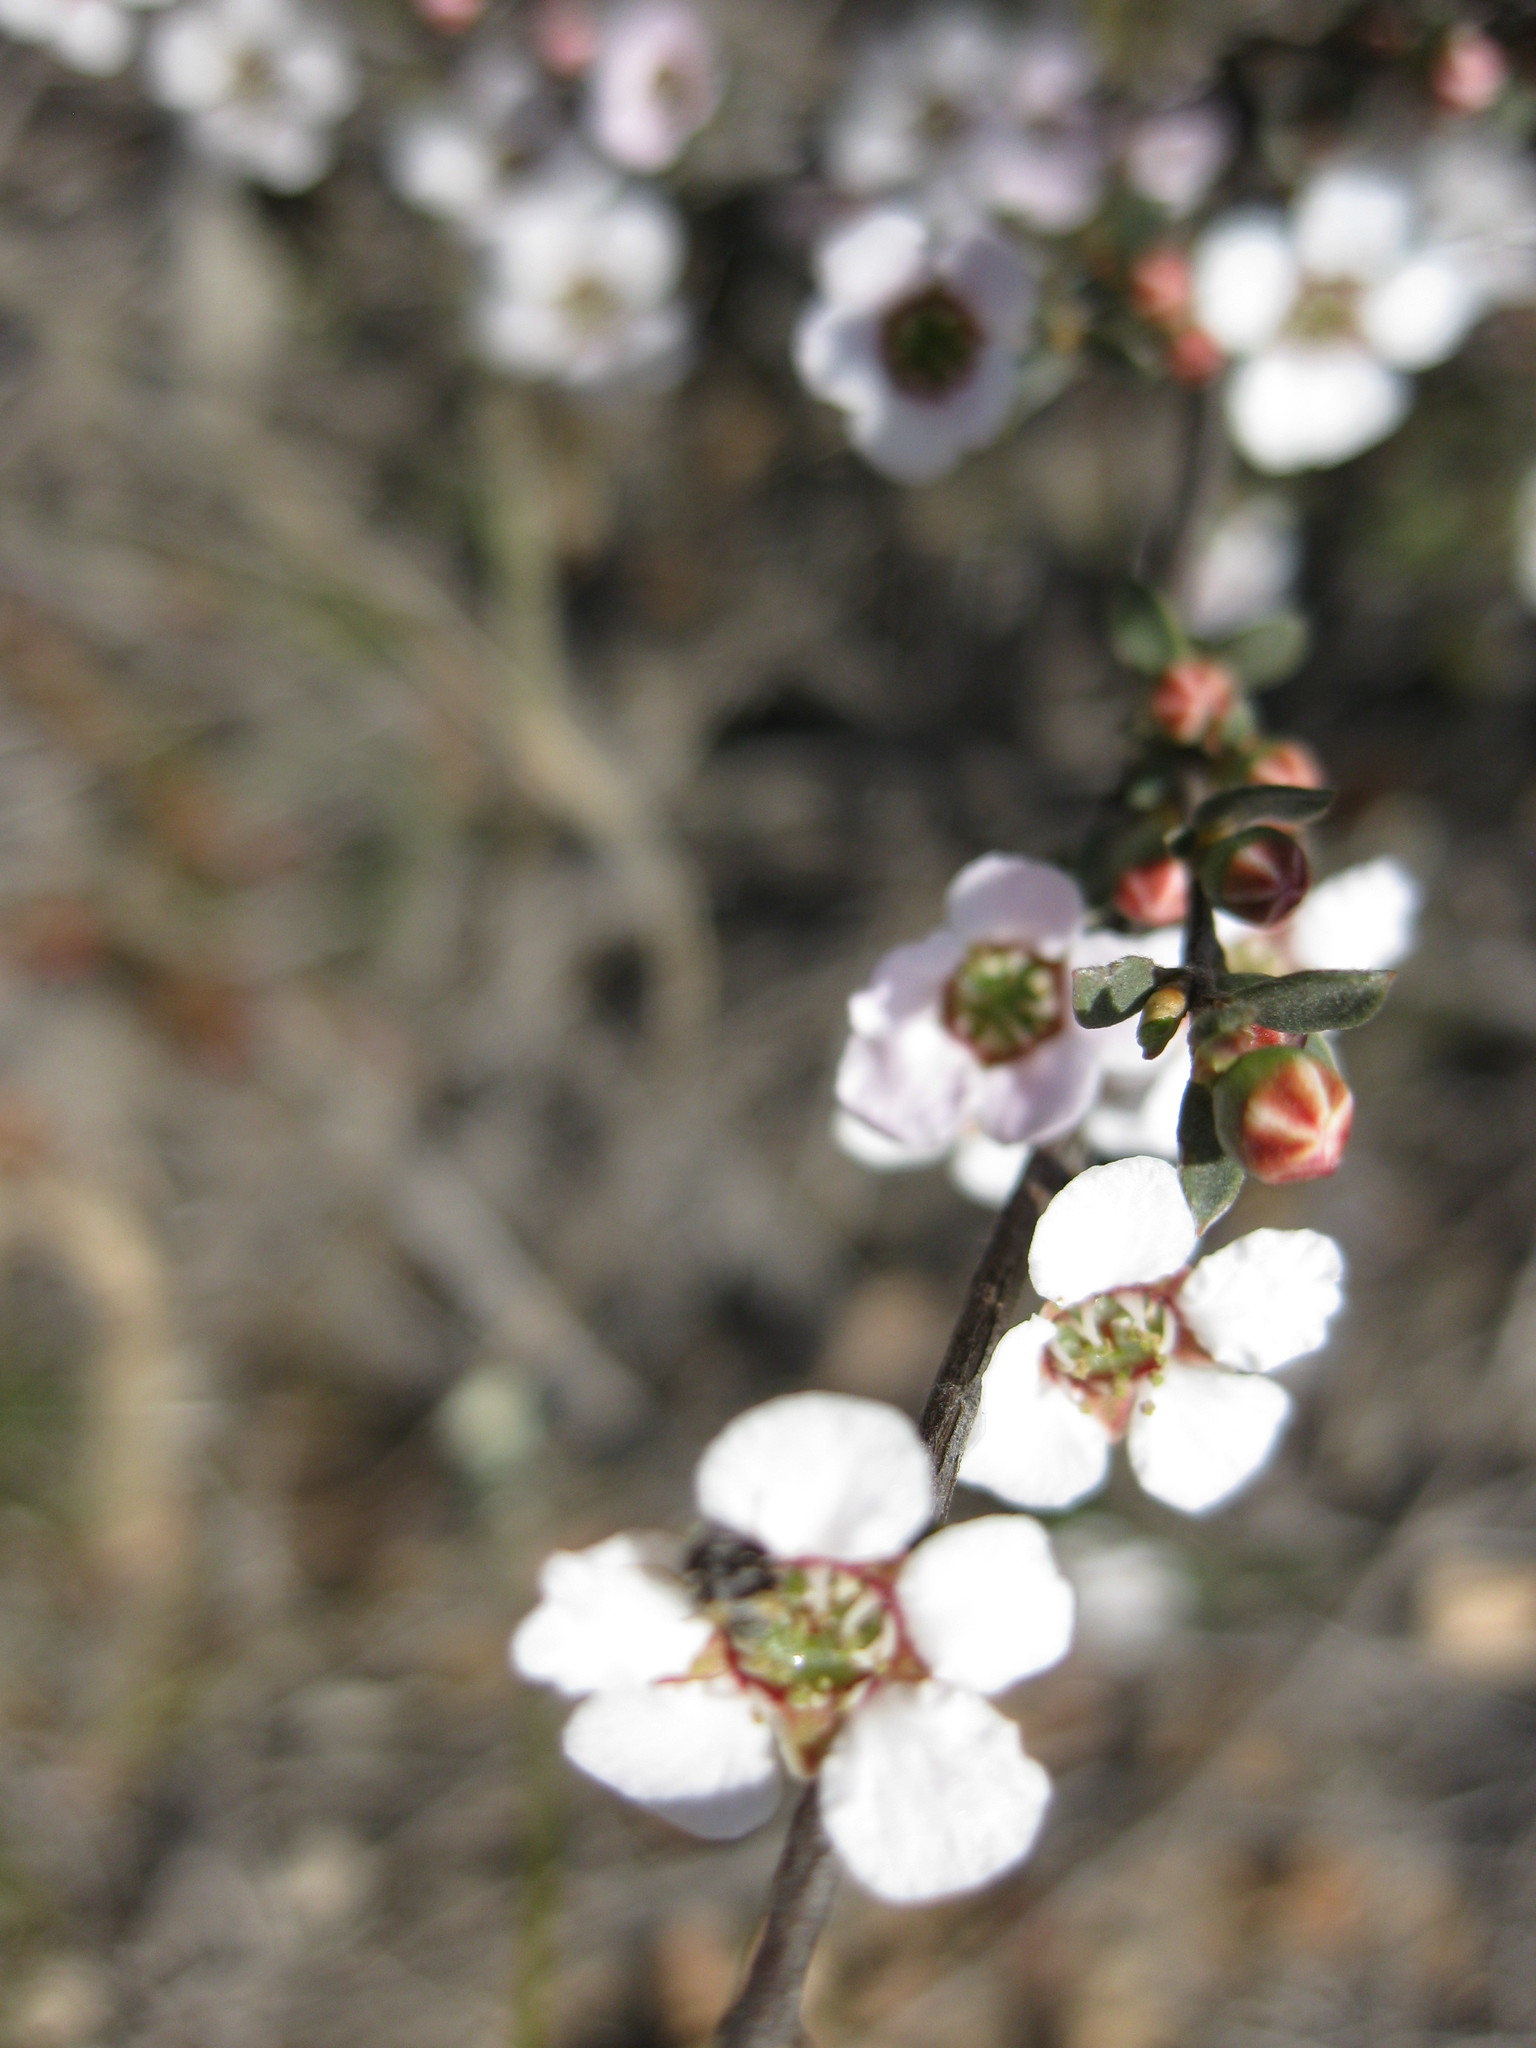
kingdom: Plantae
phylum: Tracheophyta
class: Magnoliopsida
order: Myrtales
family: Myrtaceae
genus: Leptospermum
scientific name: Leptospermum multicaule
